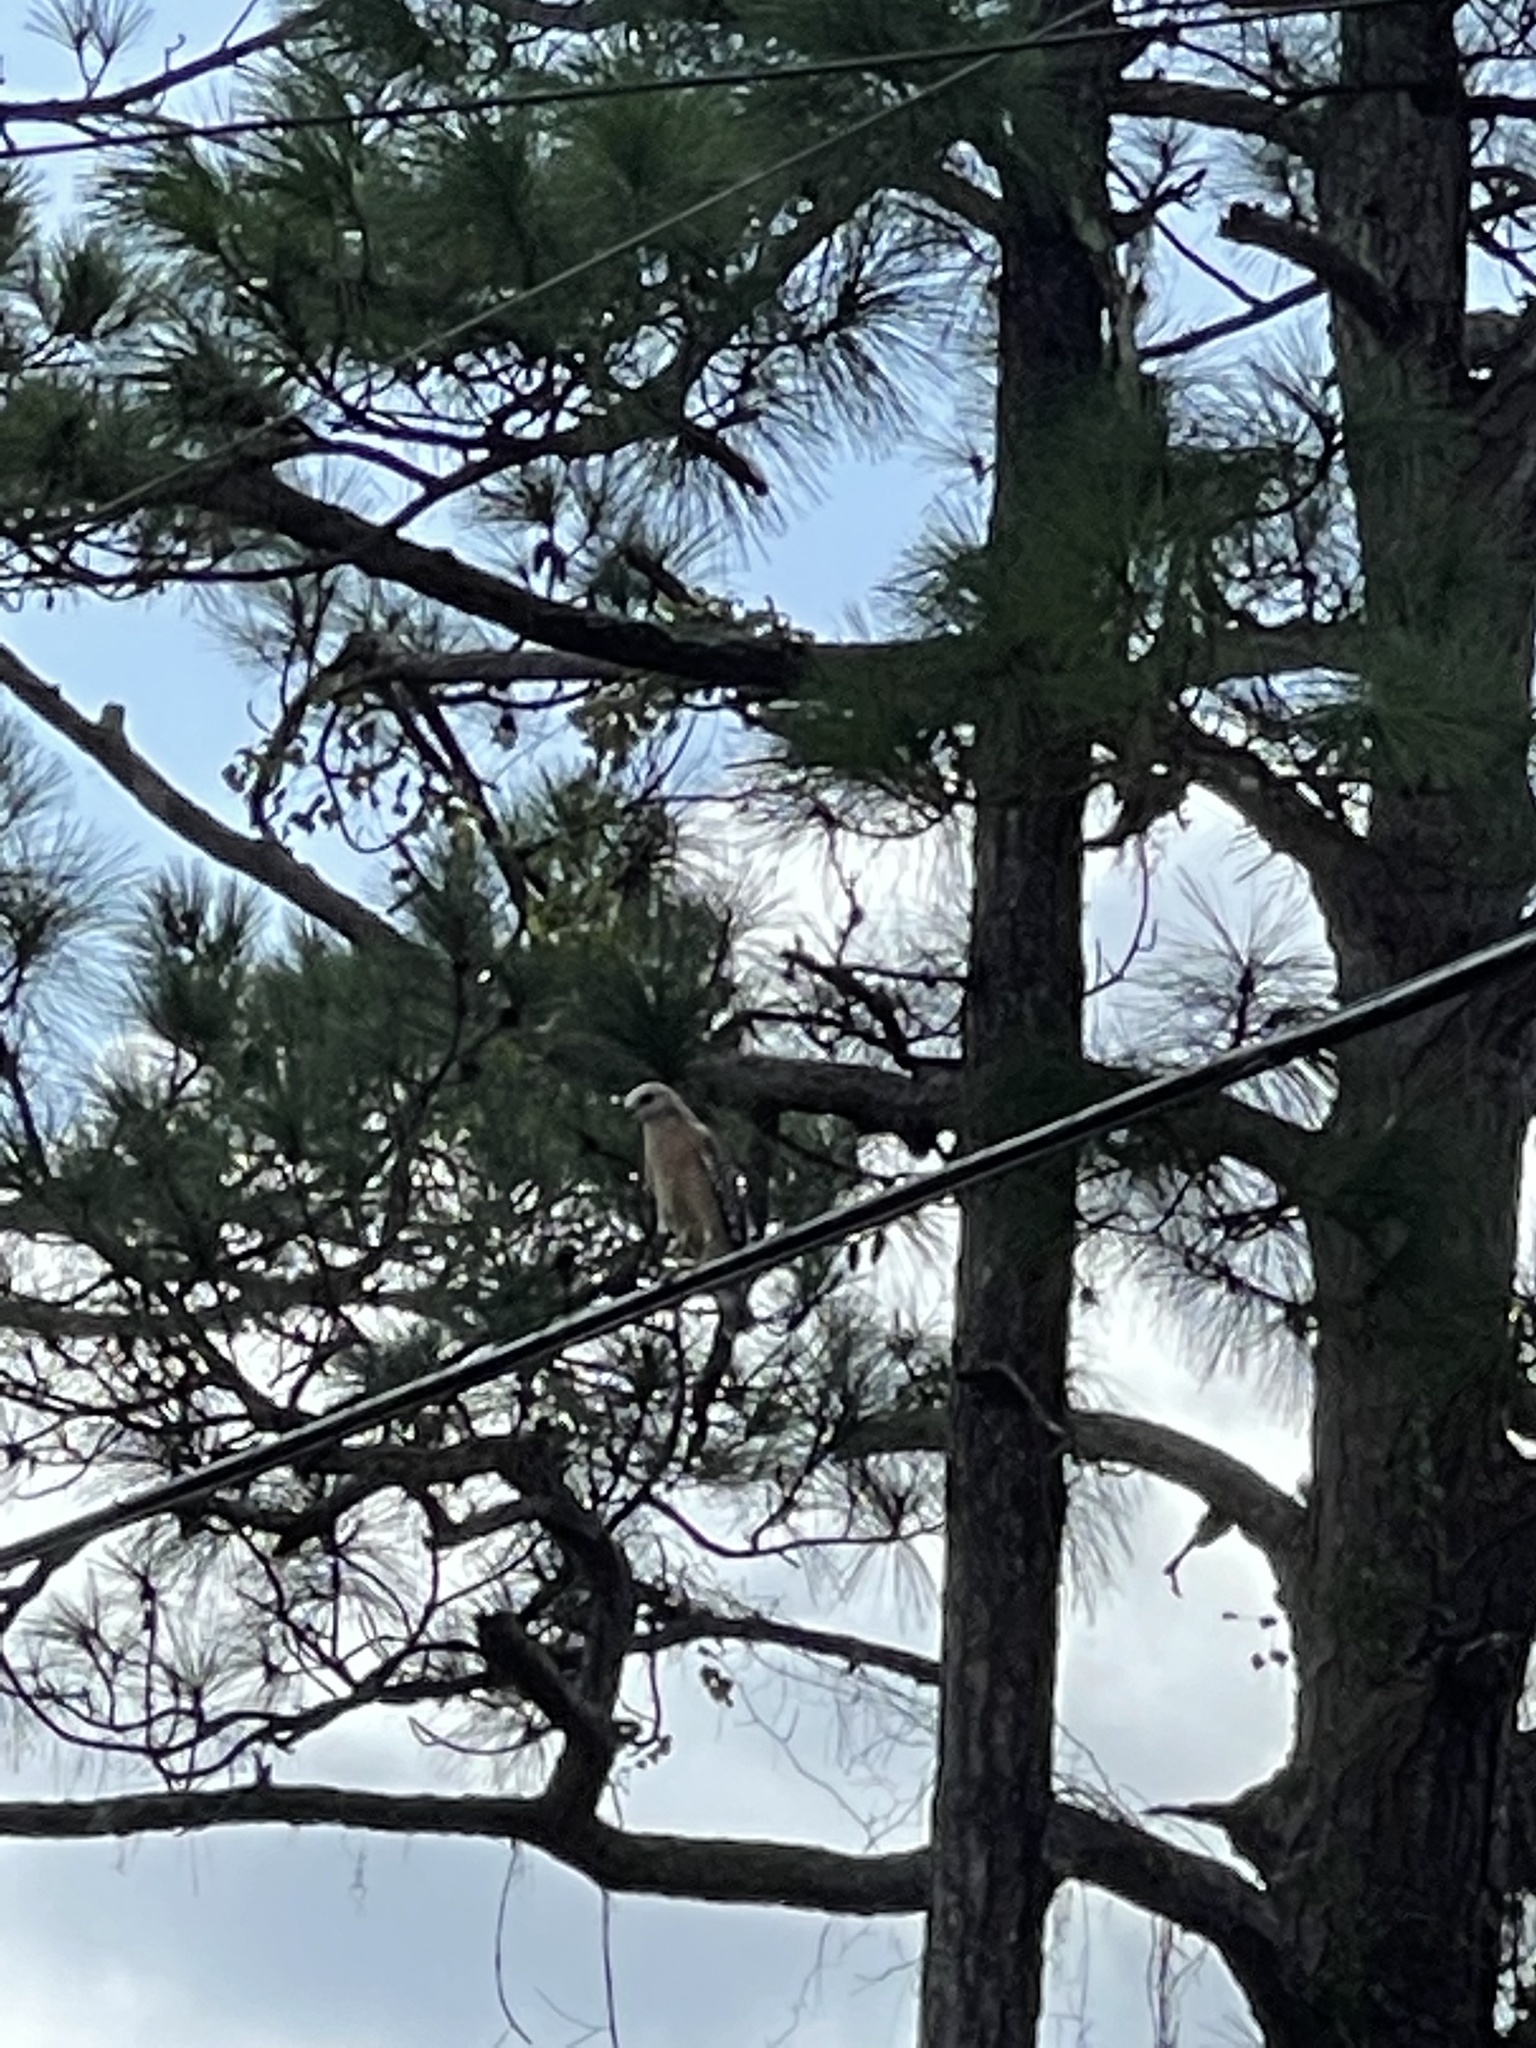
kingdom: Animalia
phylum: Chordata
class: Aves
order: Accipitriformes
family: Accipitridae
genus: Buteo
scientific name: Buteo lineatus
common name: Red-shouldered hawk
